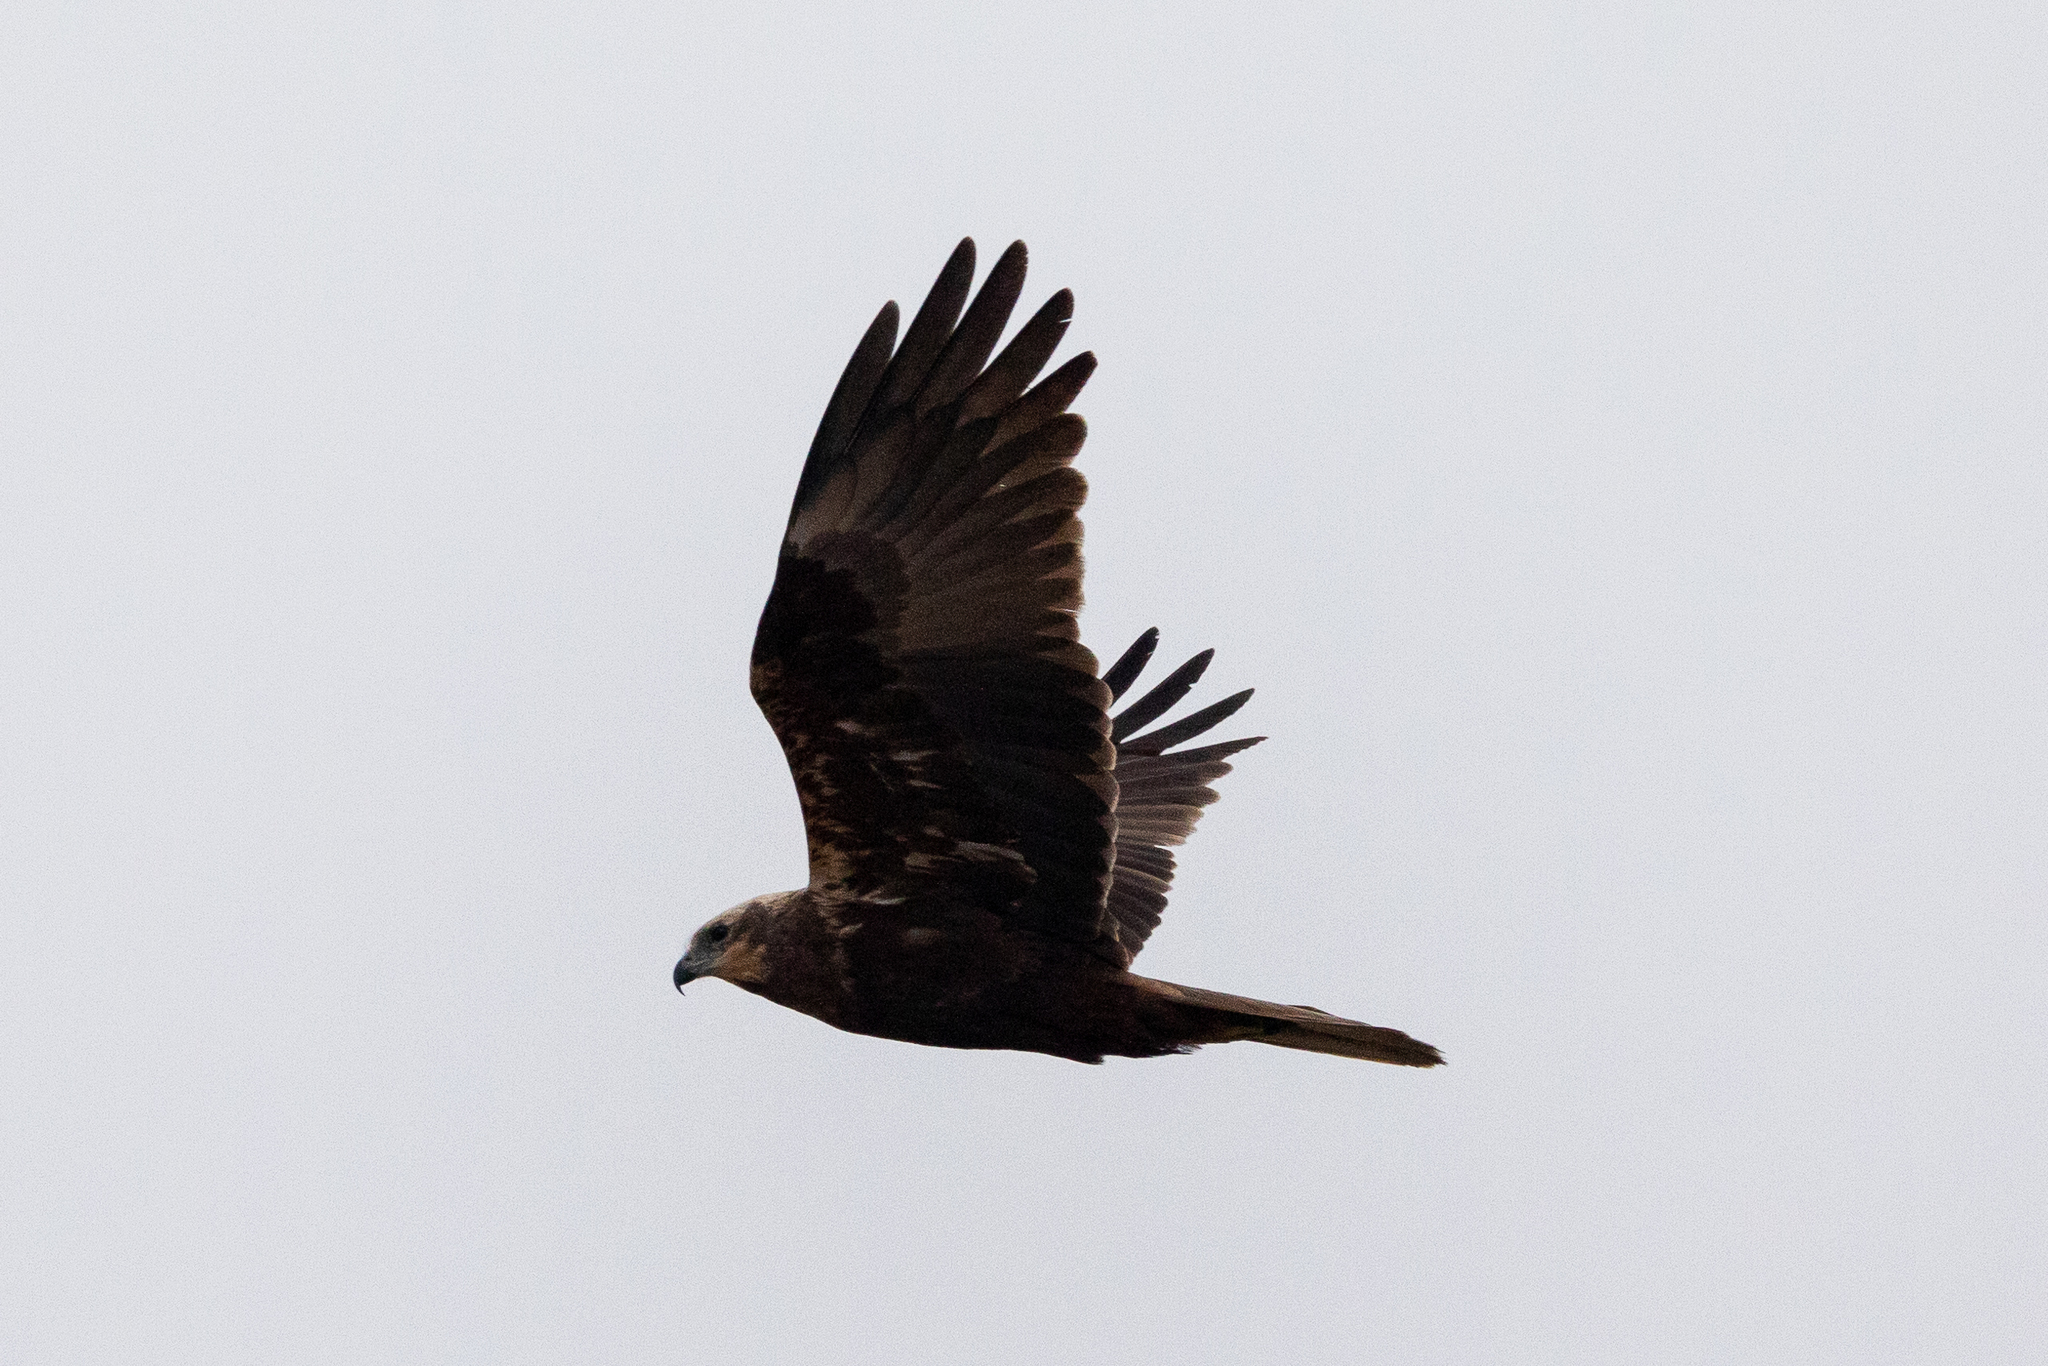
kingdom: Animalia
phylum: Chordata
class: Aves
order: Accipitriformes
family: Accipitridae
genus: Circus
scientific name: Circus aeruginosus
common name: Western marsh harrier
